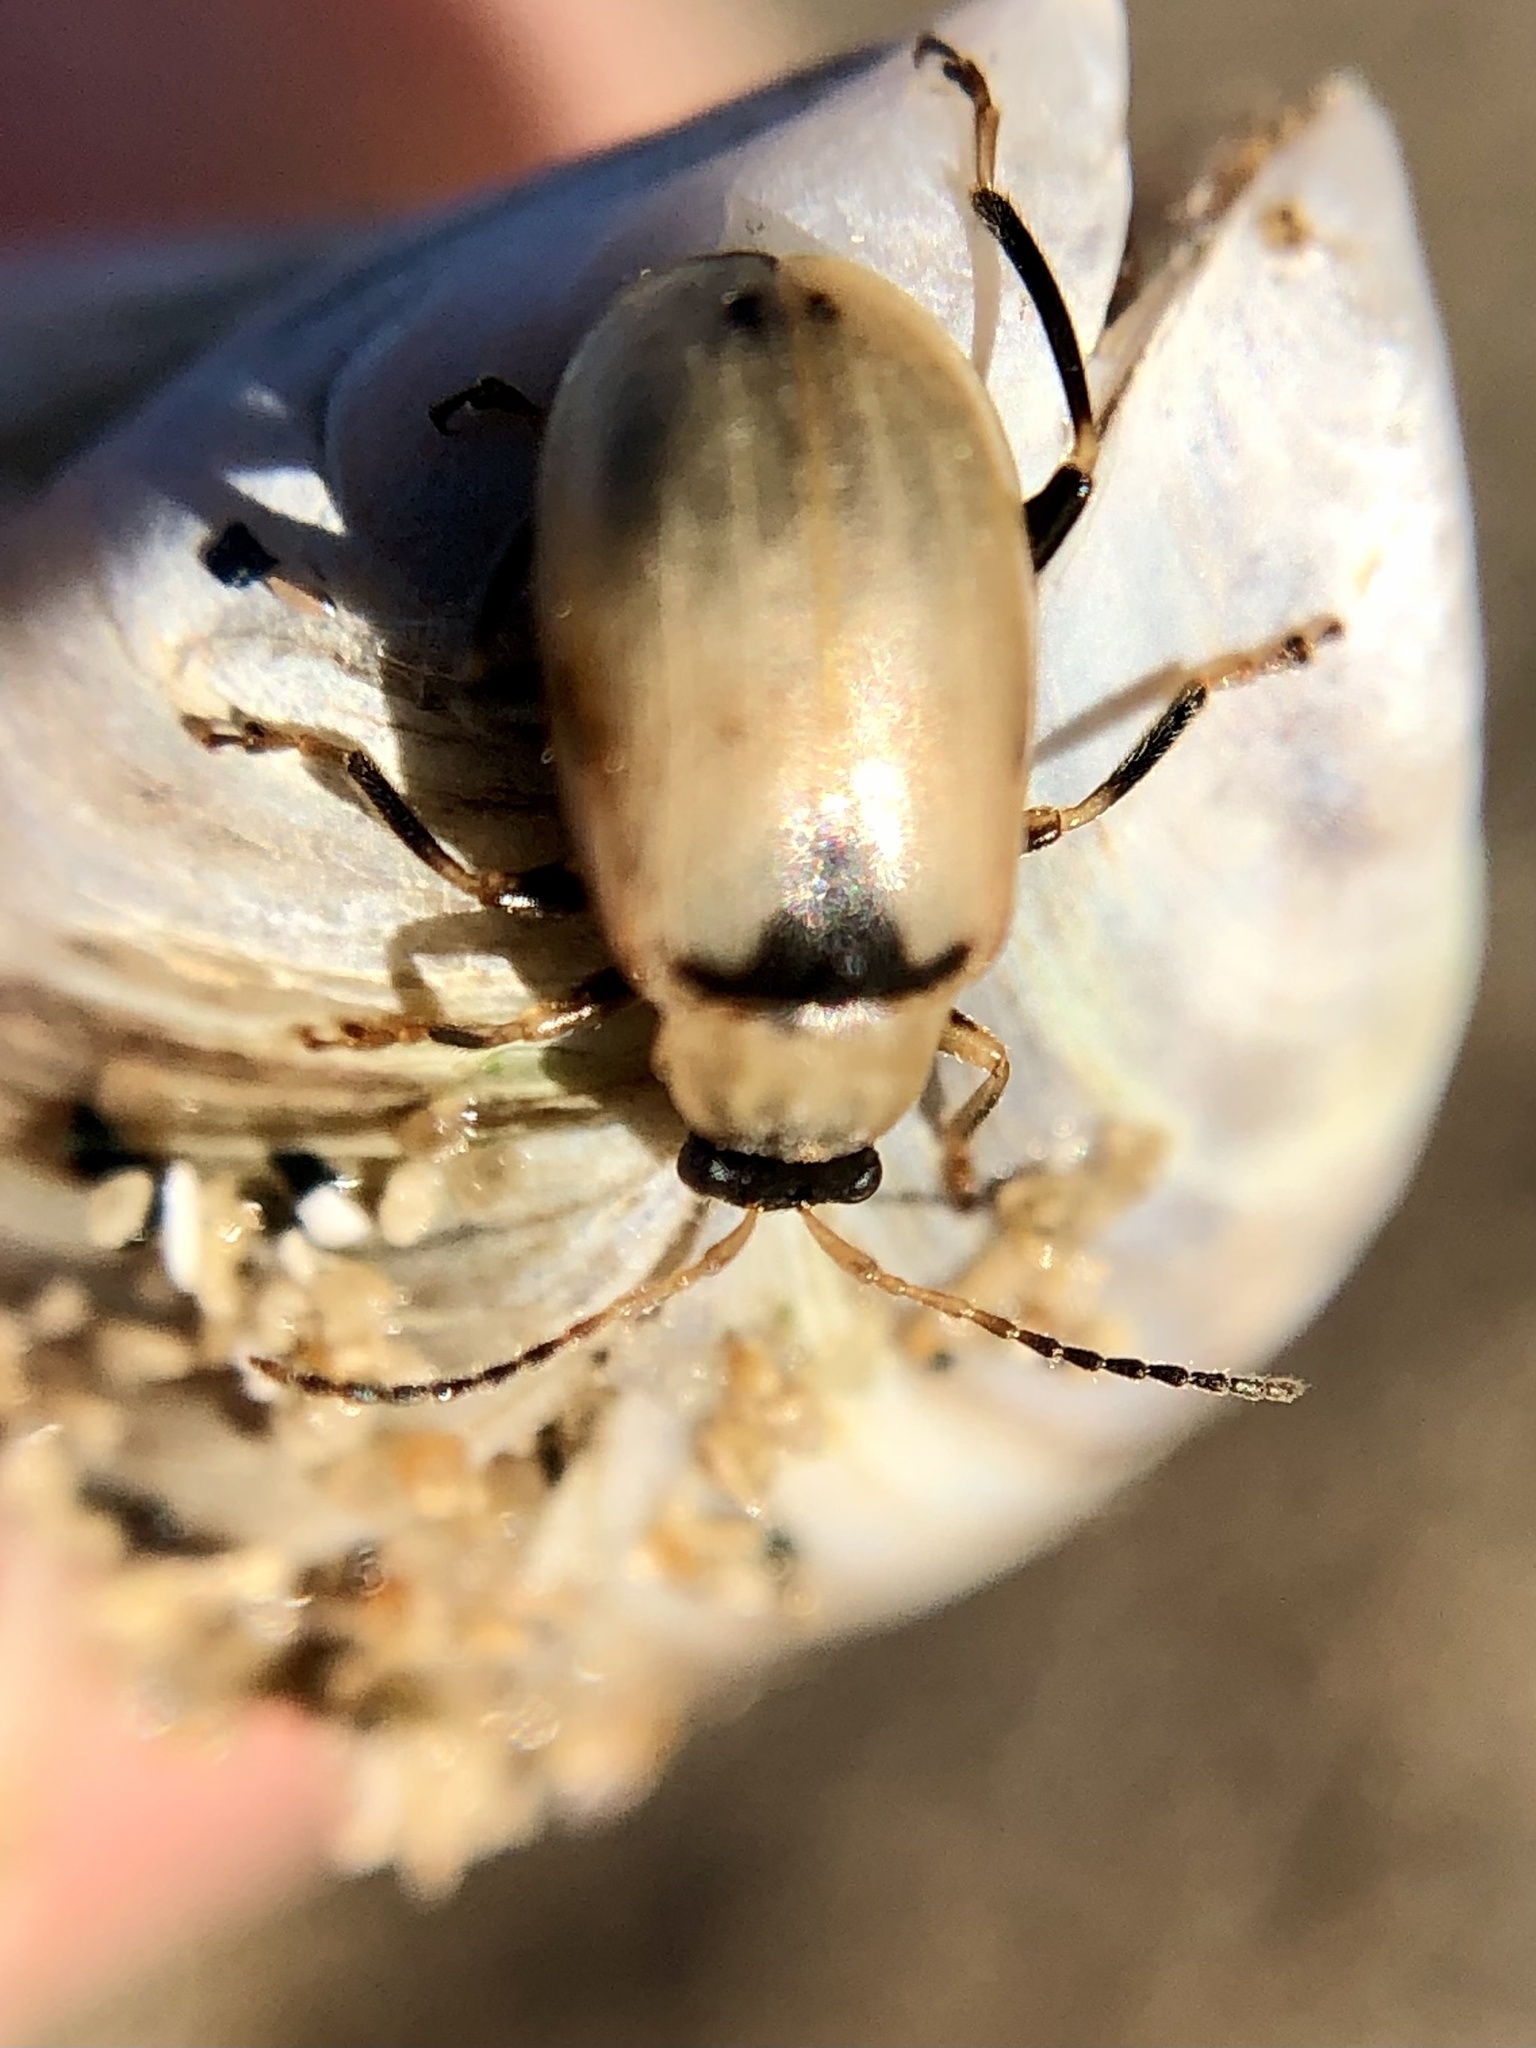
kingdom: Animalia
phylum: Arthropoda
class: Insecta
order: Coleoptera
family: Chrysomelidae
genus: Cerotoma
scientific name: Cerotoma trifurcata
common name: Bean leaf beetle
